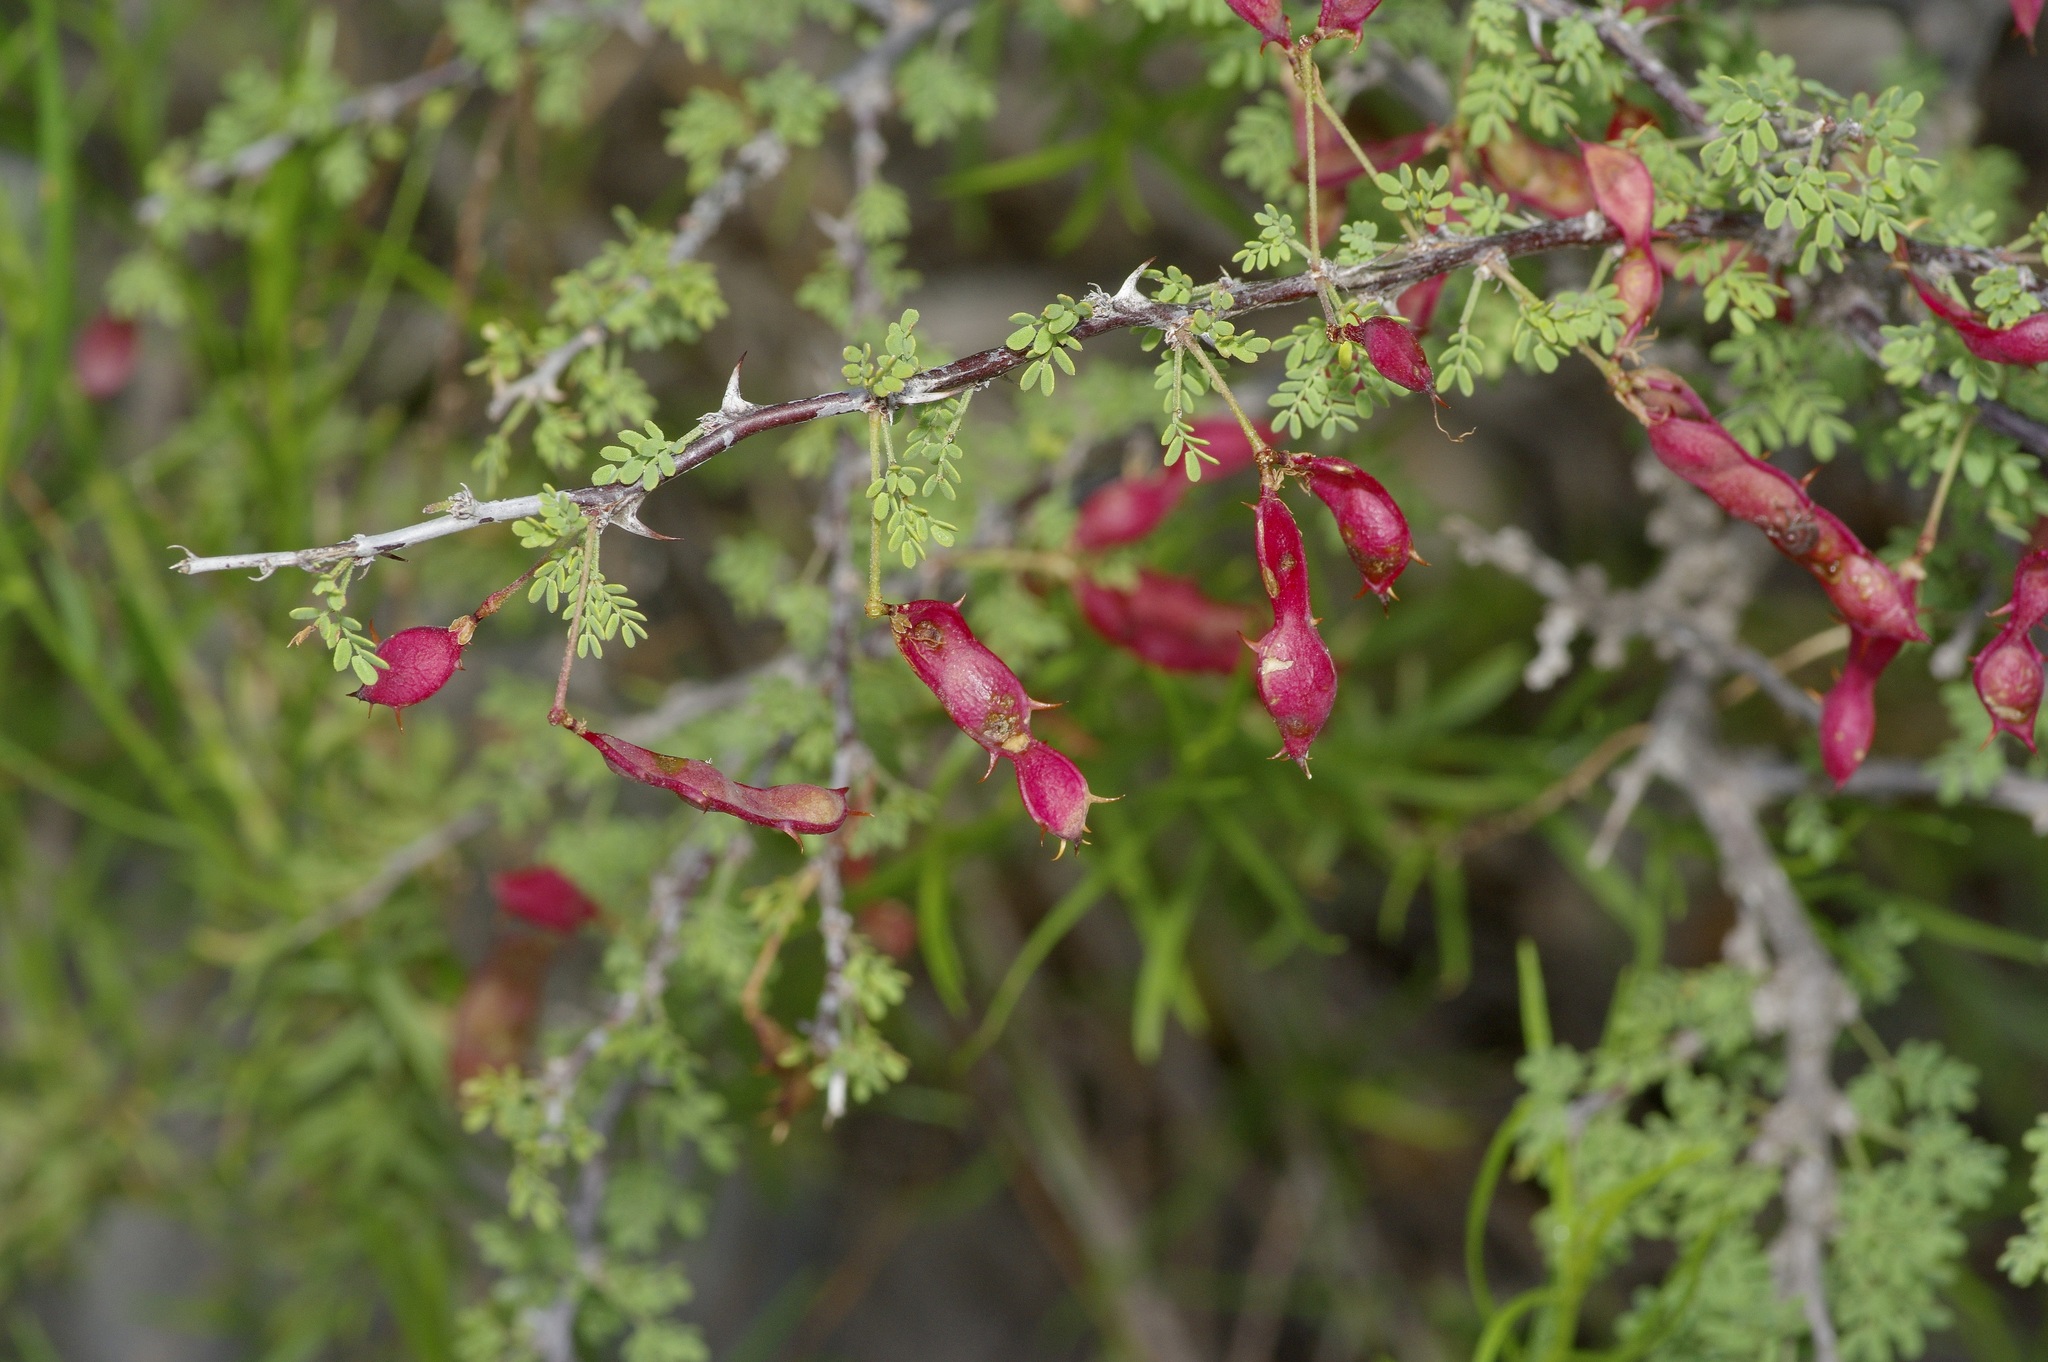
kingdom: Plantae
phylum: Tracheophyta
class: Magnoliopsida
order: Fabales
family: Fabaceae
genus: Mimosa
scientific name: Mimosa texana
